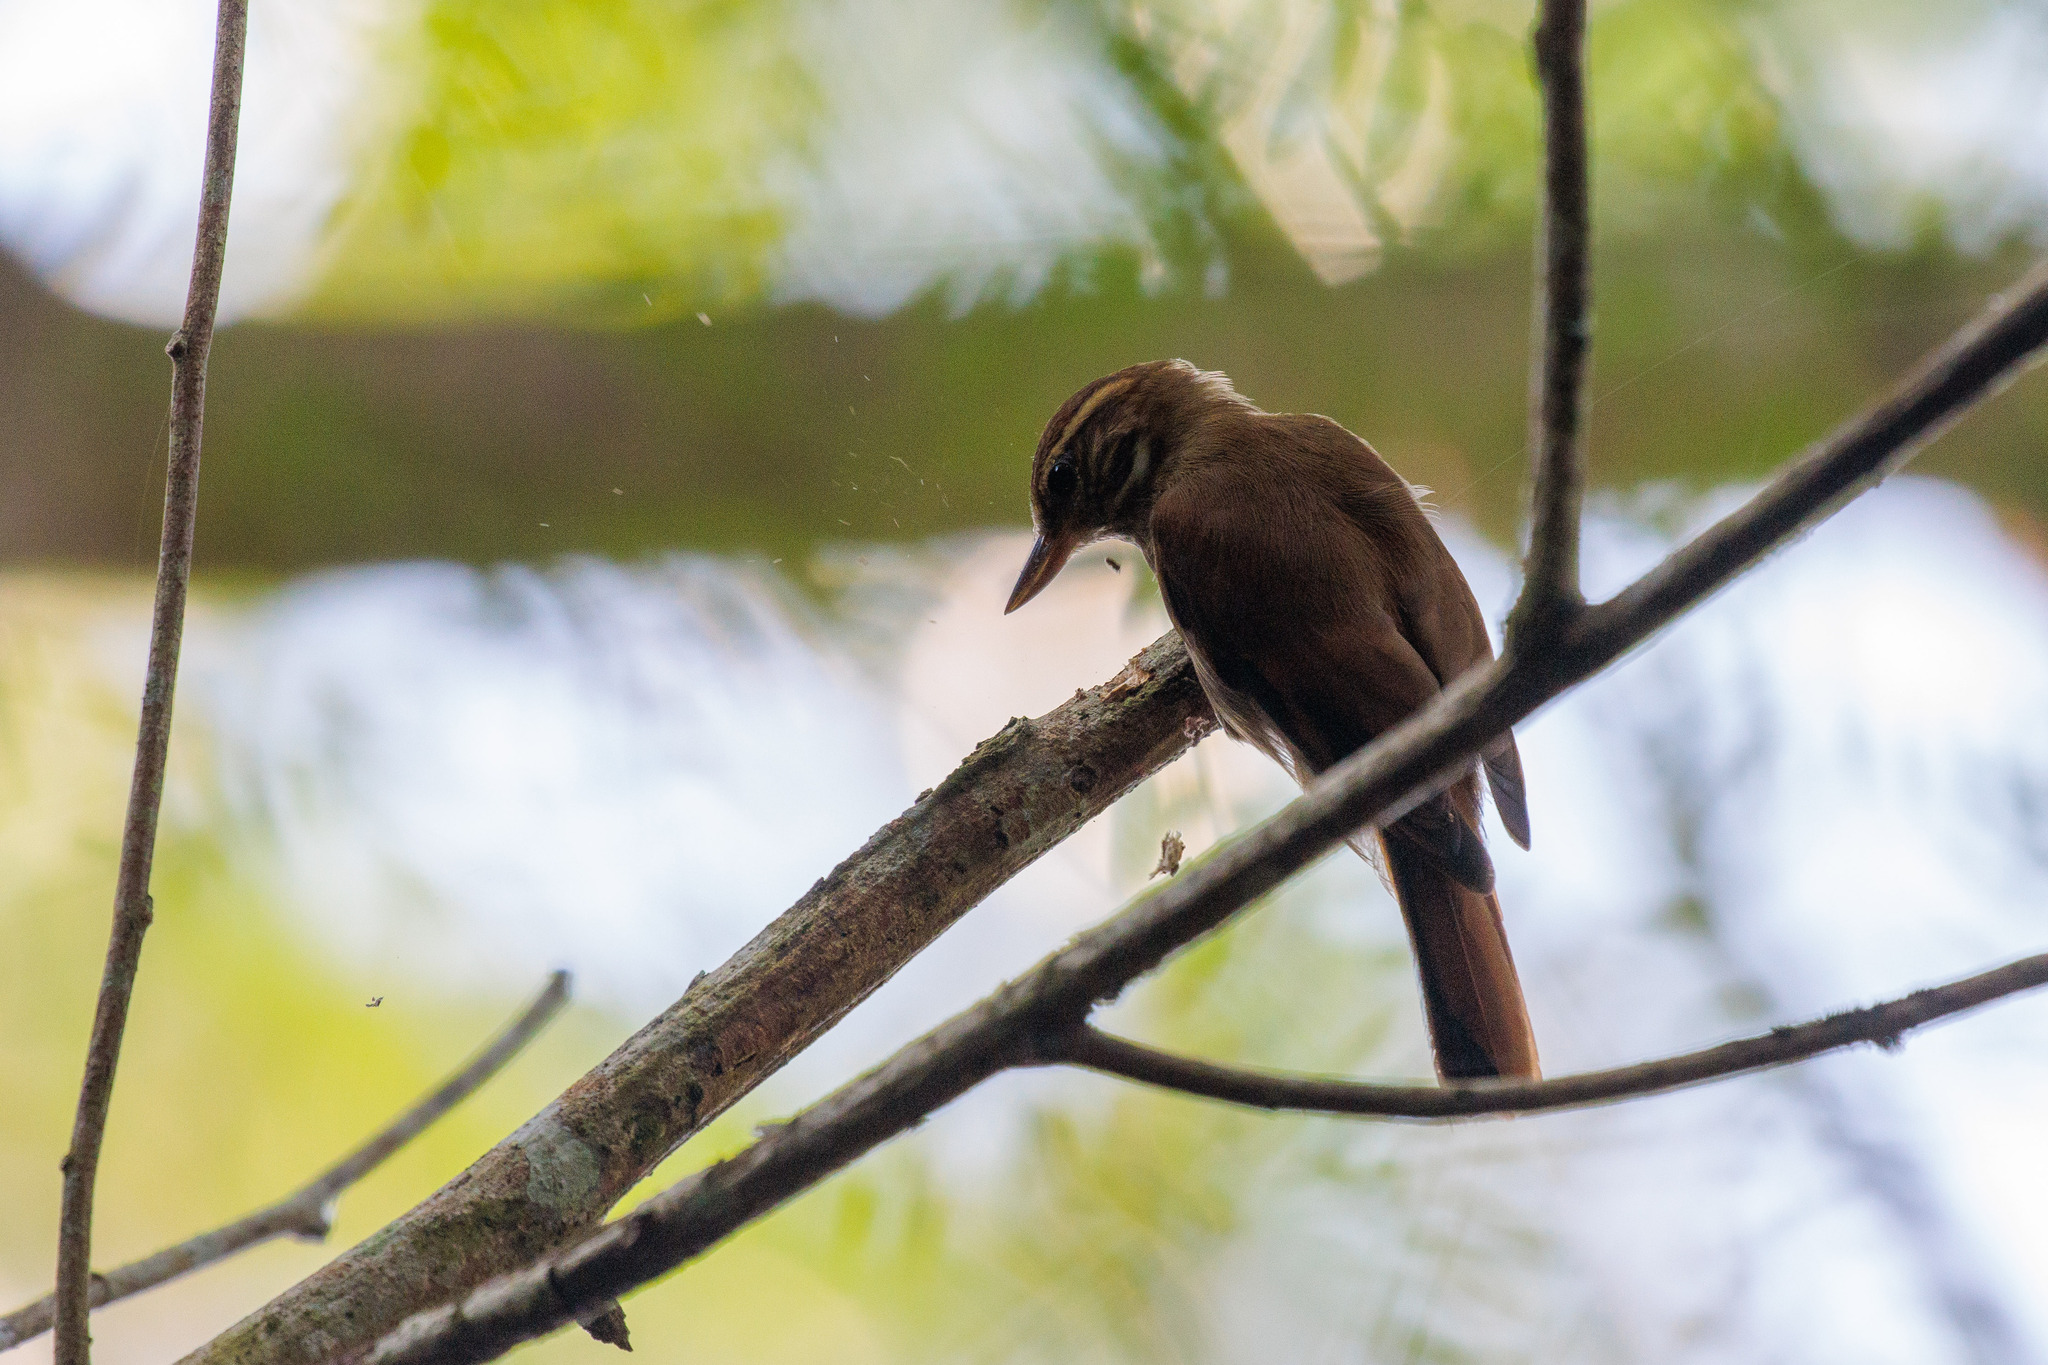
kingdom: Animalia
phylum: Chordata
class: Aves
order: Passeriformes
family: Furnariidae
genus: Xenops
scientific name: Xenops minutus
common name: Plain xenops
